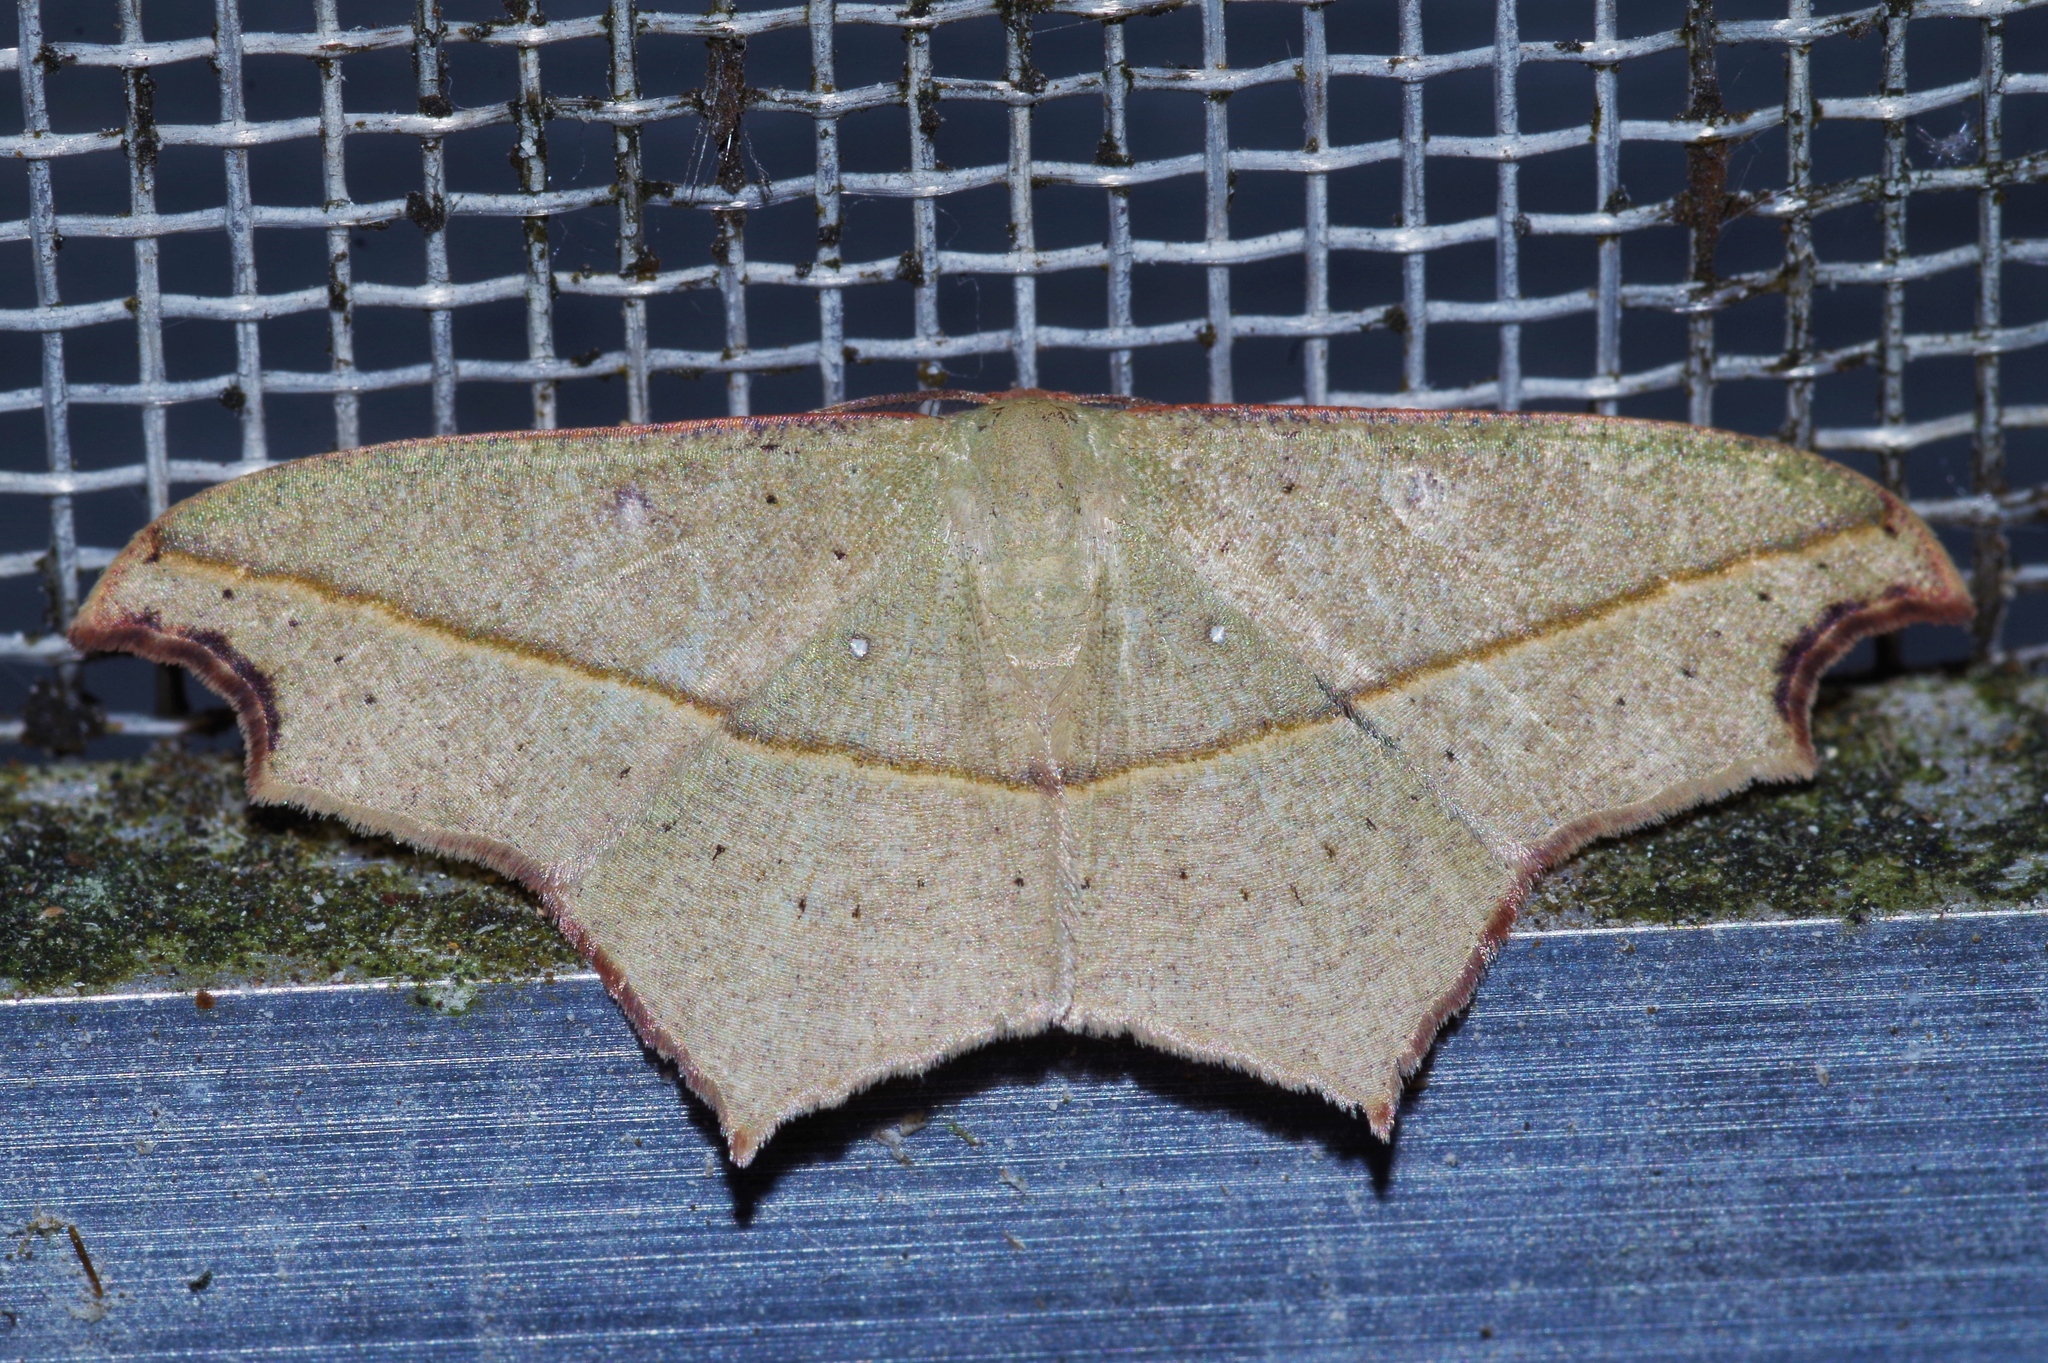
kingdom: Animalia
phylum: Arthropoda
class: Insecta
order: Lepidoptera
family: Geometridae
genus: Traminda
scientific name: Traminda aventiaria
